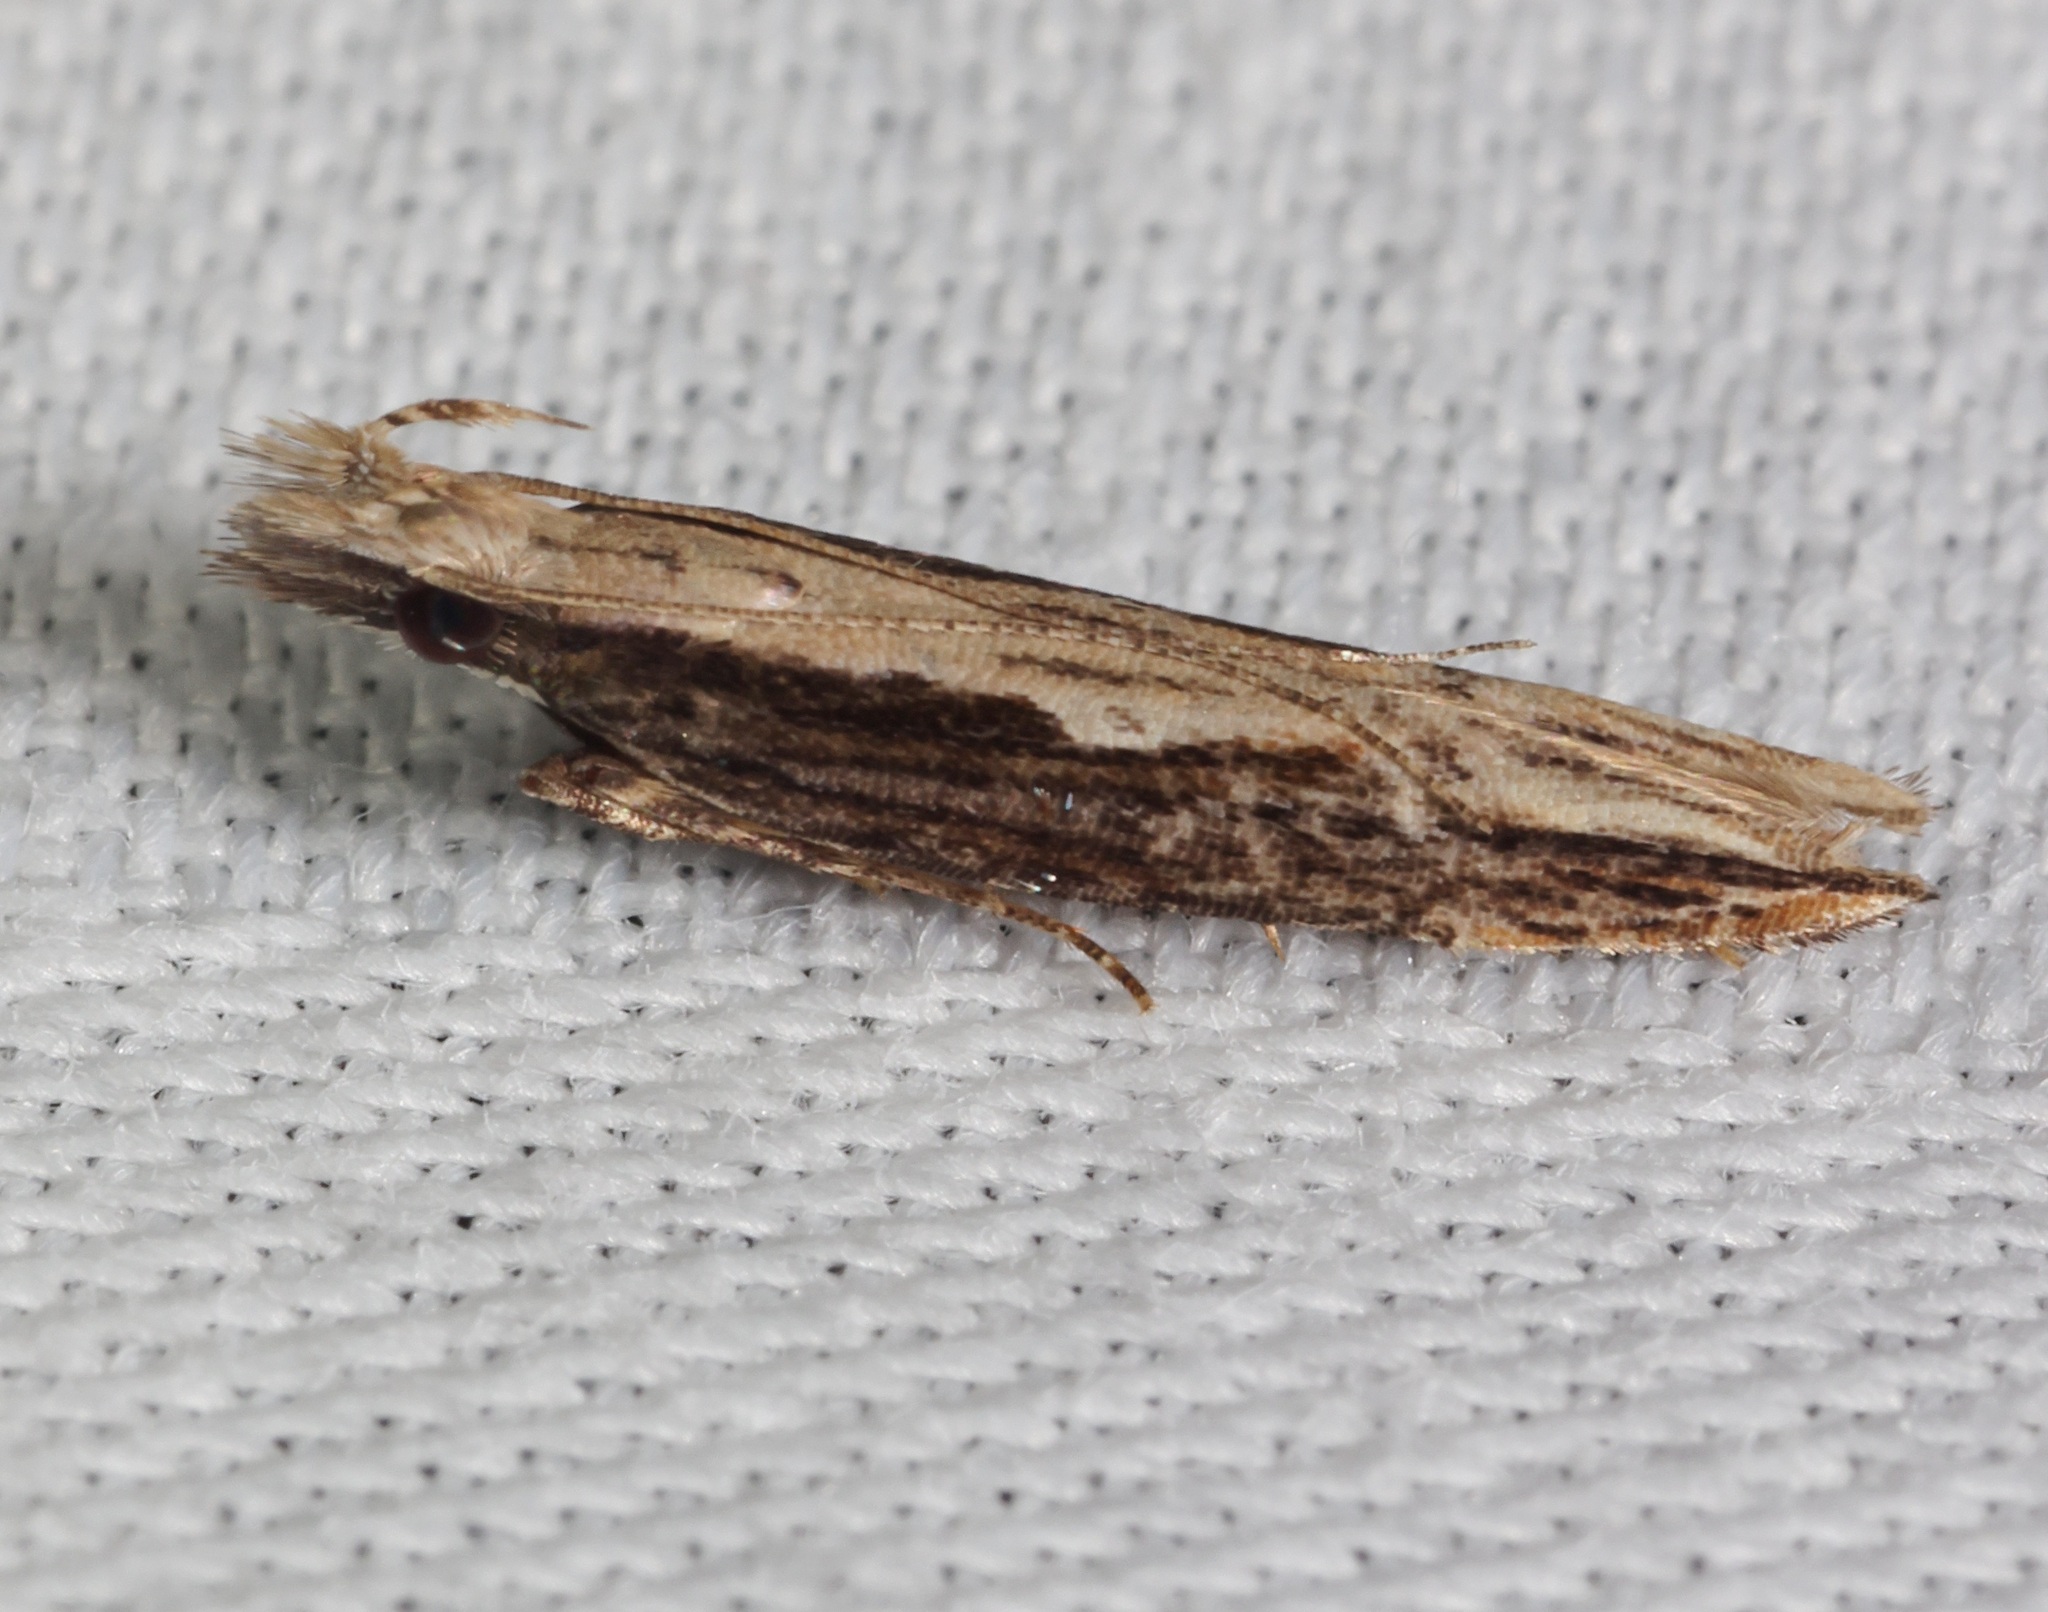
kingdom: Animalia
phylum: Arthropoda
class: Insecta
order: Lepidoptera
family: Gelechiidae
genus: Hypatima
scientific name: Hypatima spathota
